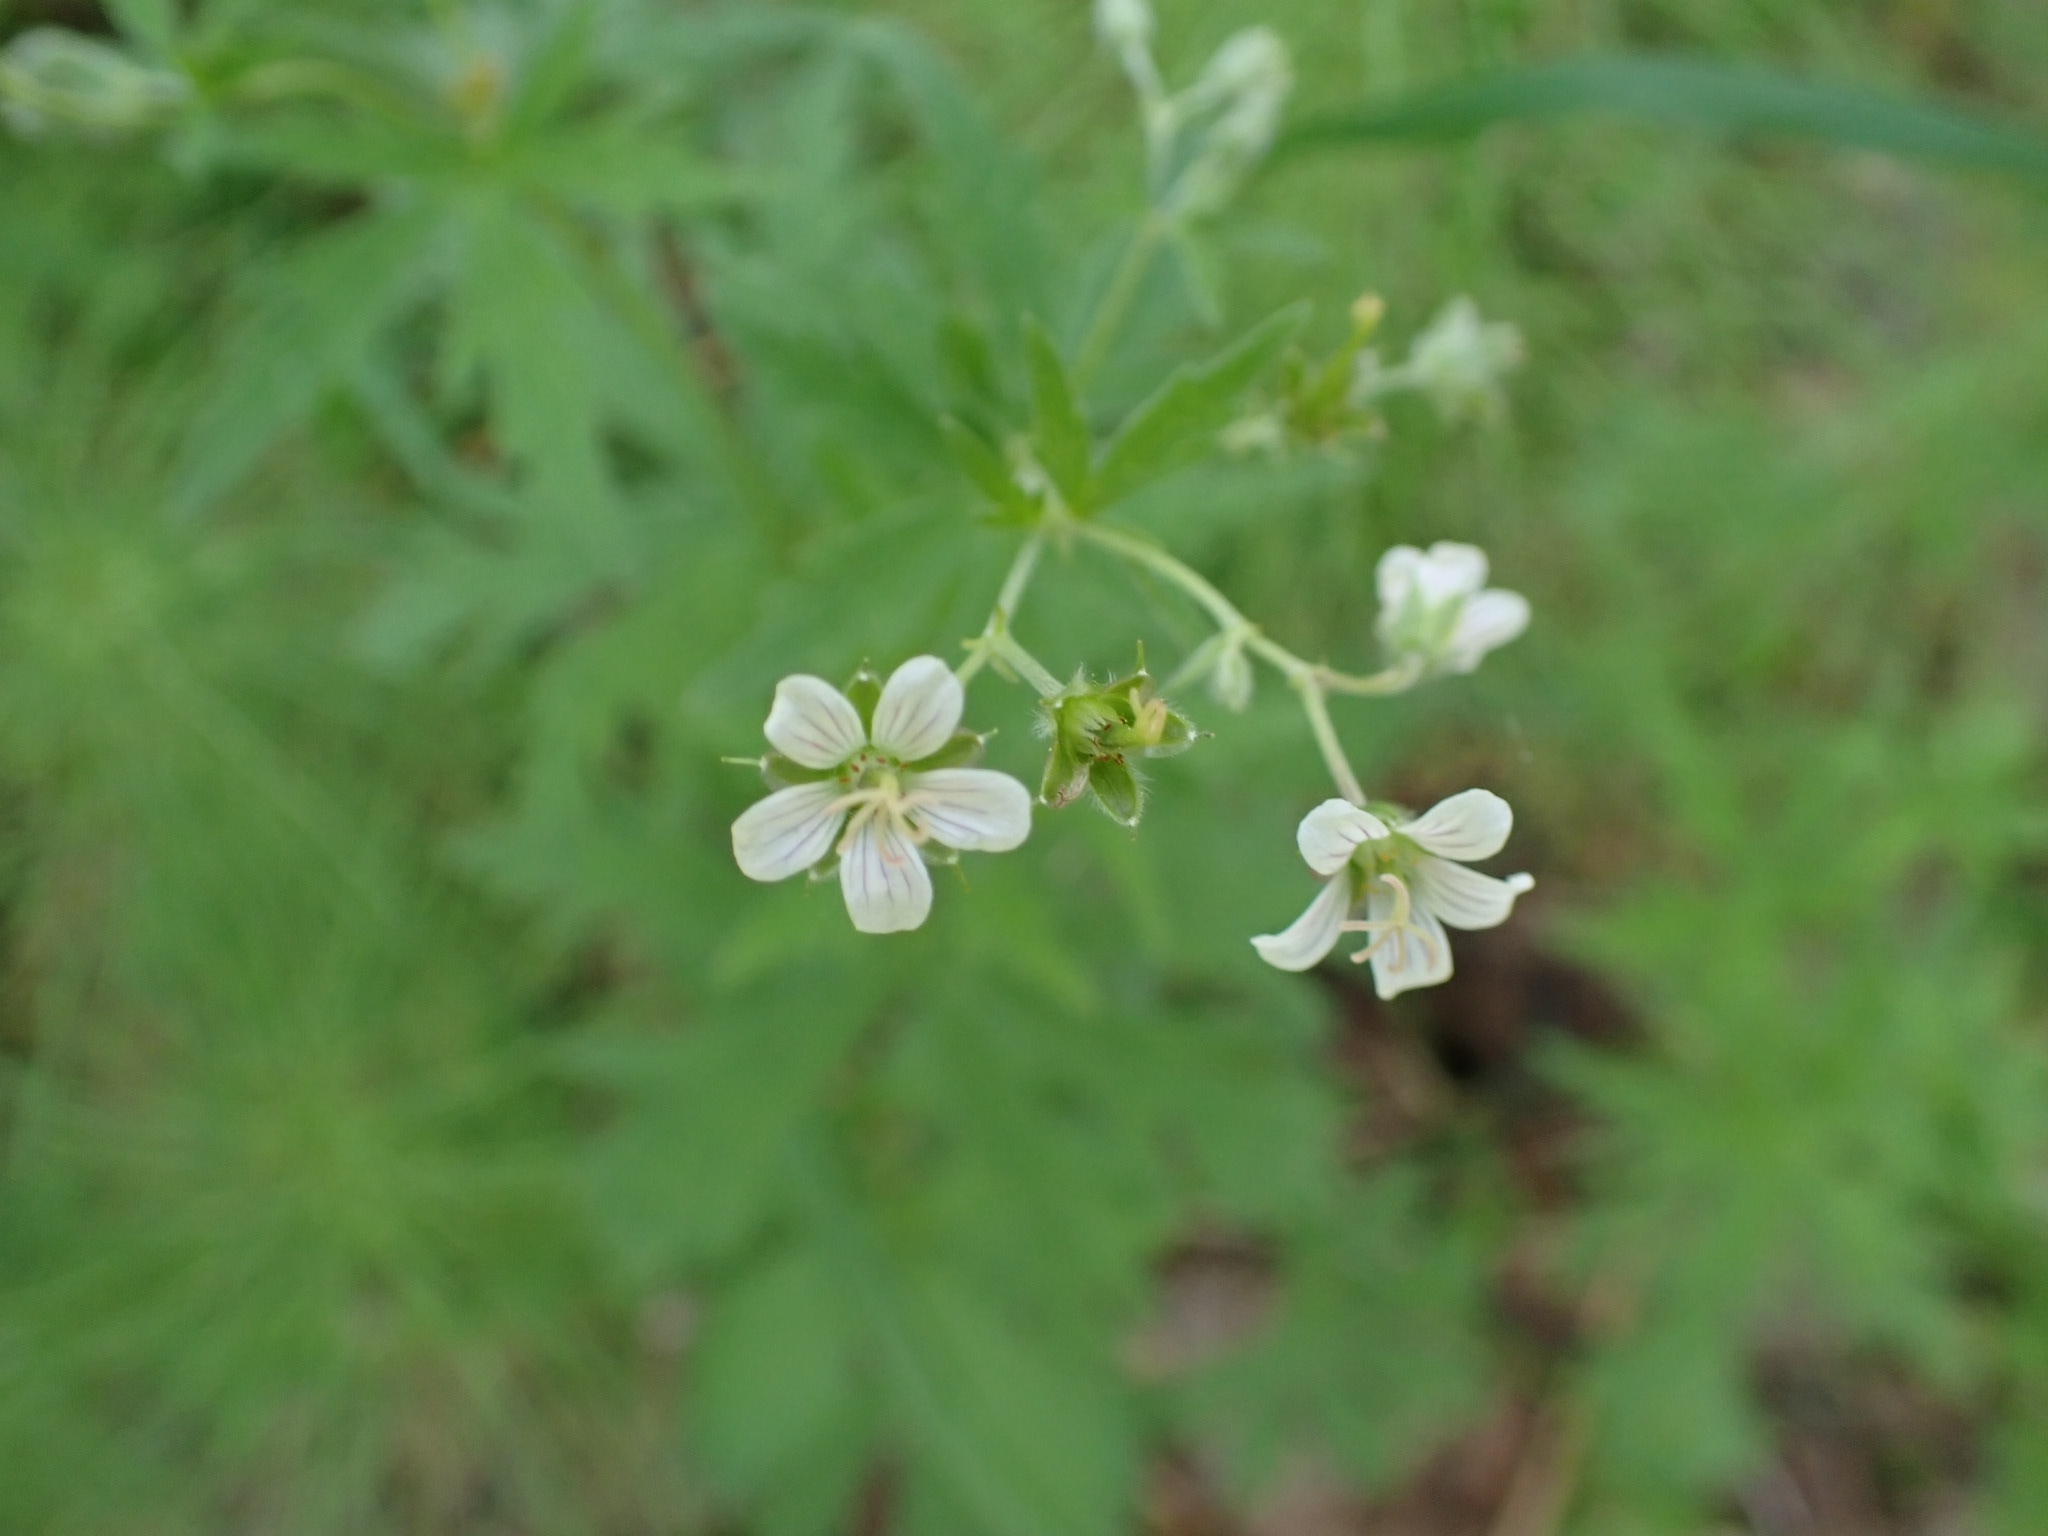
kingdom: Plantae
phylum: Tracheophyta
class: Magnoliopsida
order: Geraniales
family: Geraniaceae
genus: Geranium
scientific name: Geranium pseudosibiricum
